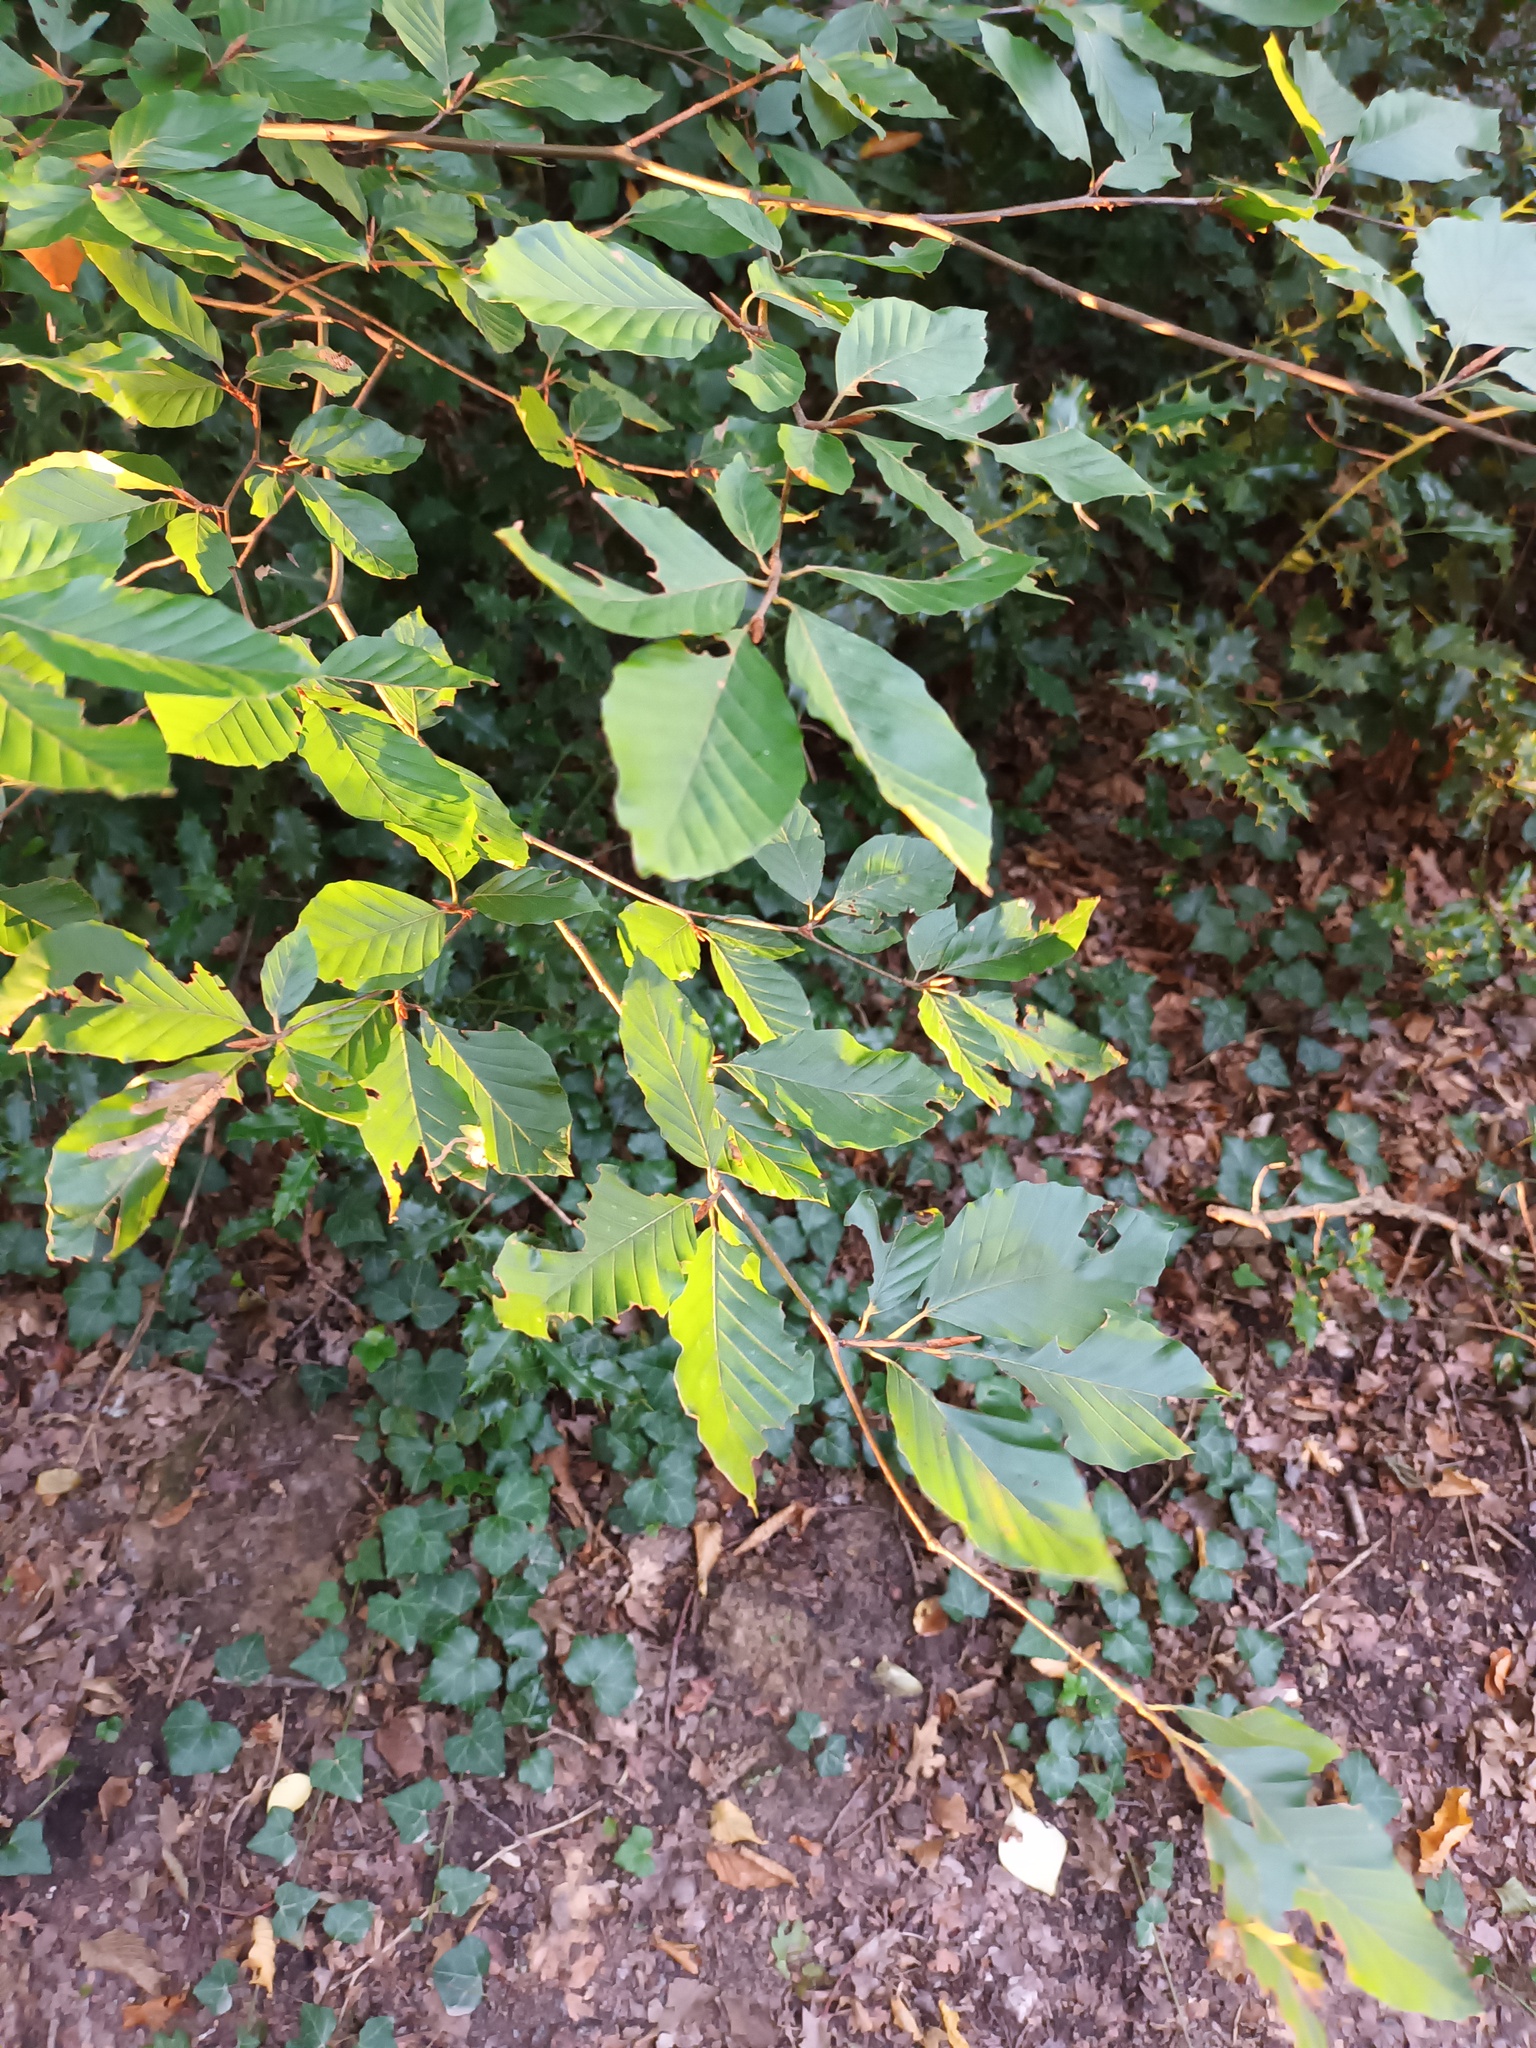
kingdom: Plantae
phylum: Tracheophyta
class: Magnoliopsida
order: Fagales
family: Fagaceae
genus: Fagus
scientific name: Fagus sylvatica
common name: Beech
